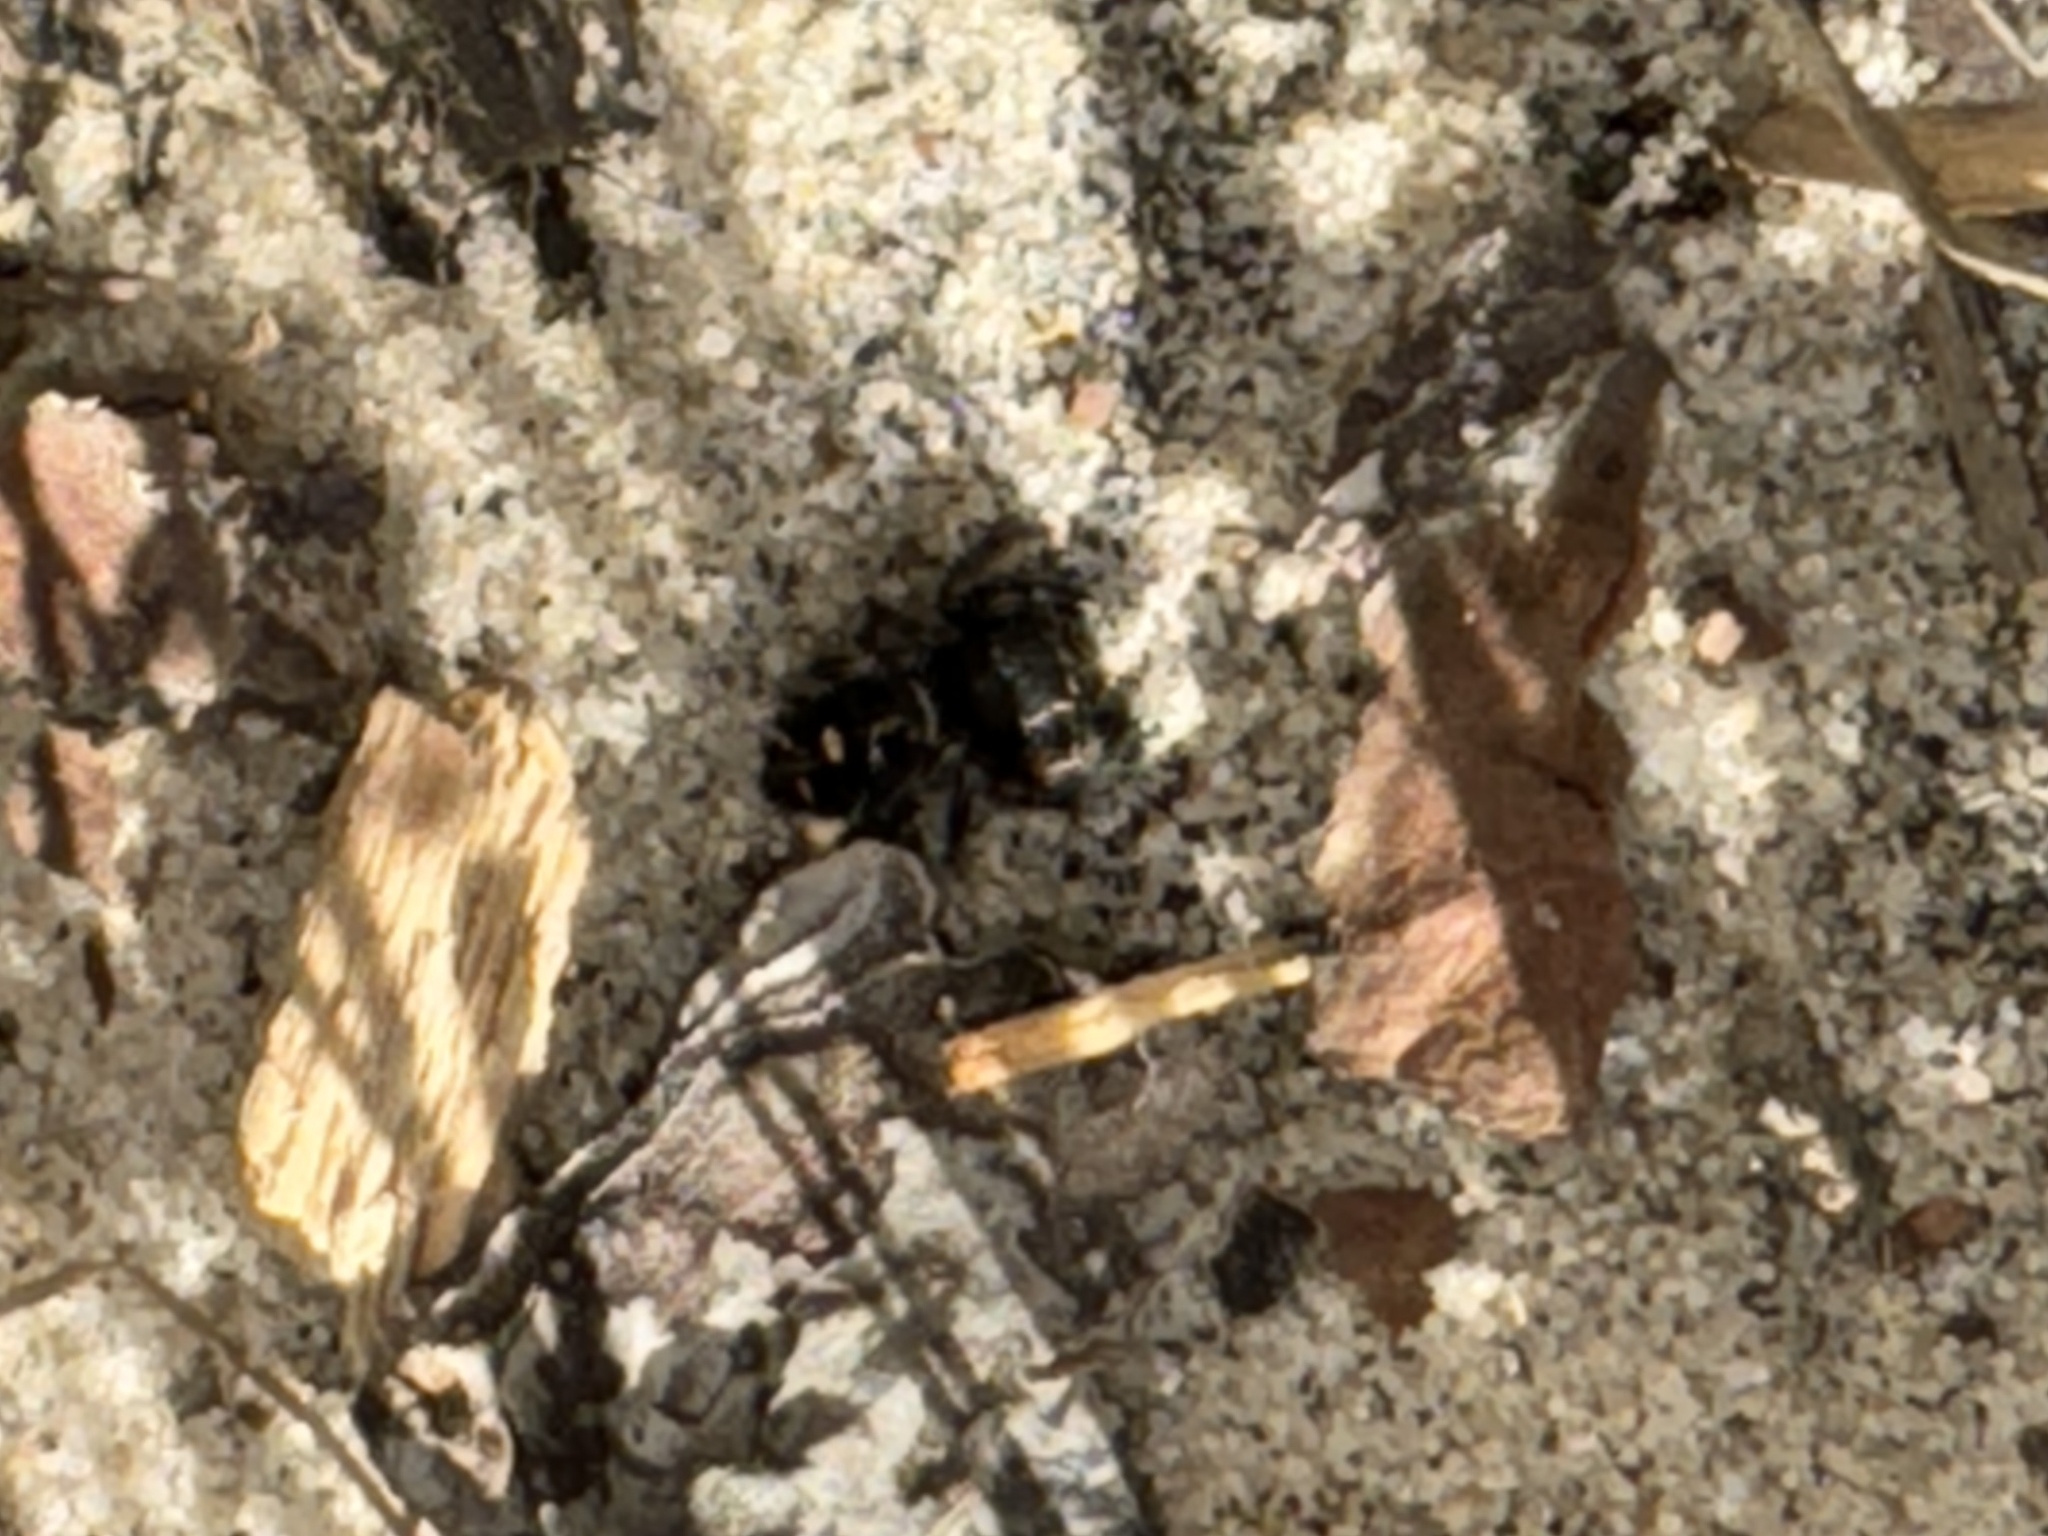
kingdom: Animalia
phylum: Arthropoda
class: Arachnida
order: Araneae
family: Salticidae
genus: Phidippus
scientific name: Phidippus audax
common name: Bold jumper
